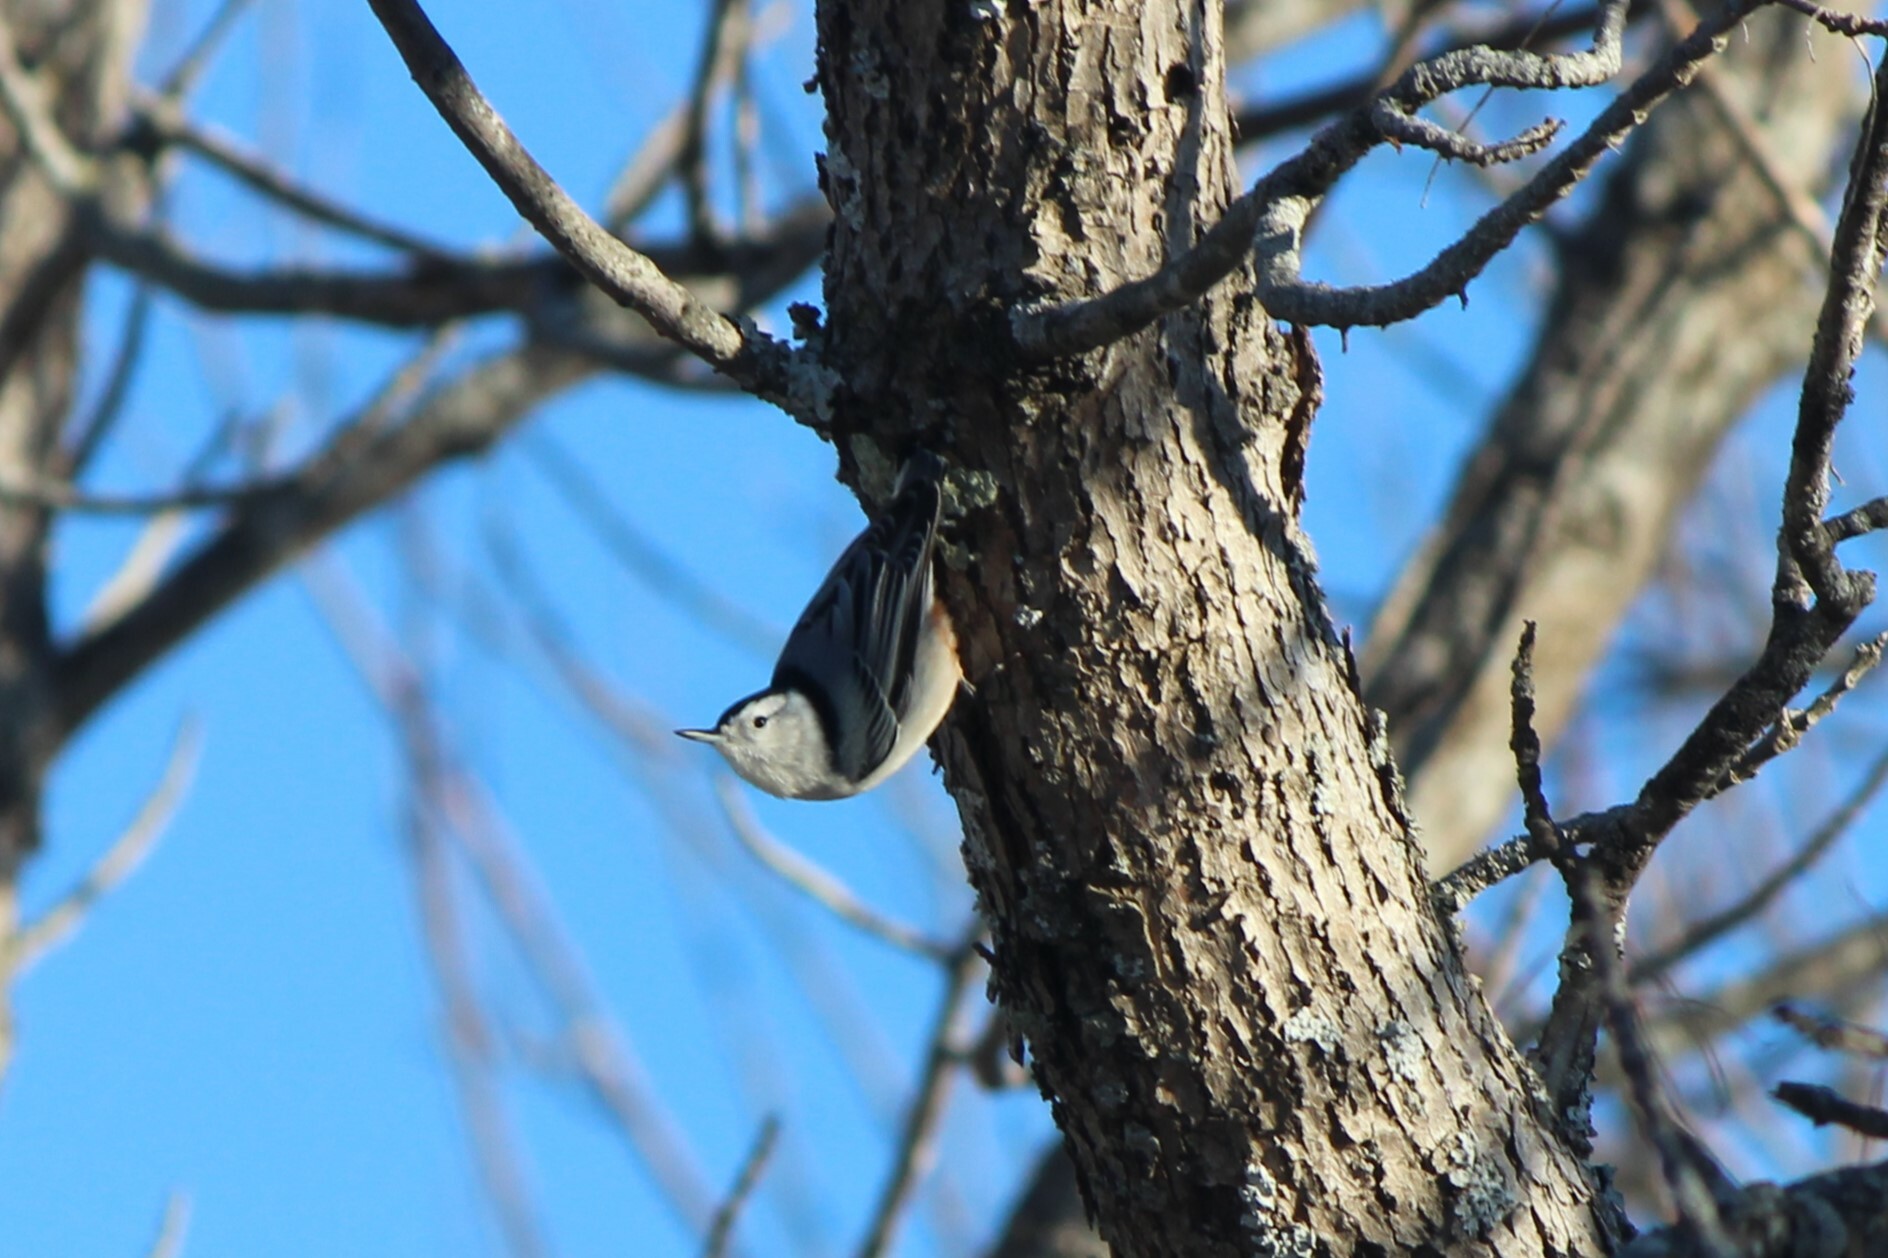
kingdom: Animalia
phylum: Chordata
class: Aves
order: Passeriformes
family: Sittidae
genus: Sitta
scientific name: Sitta carolinensis
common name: White-breasted nuthatch
